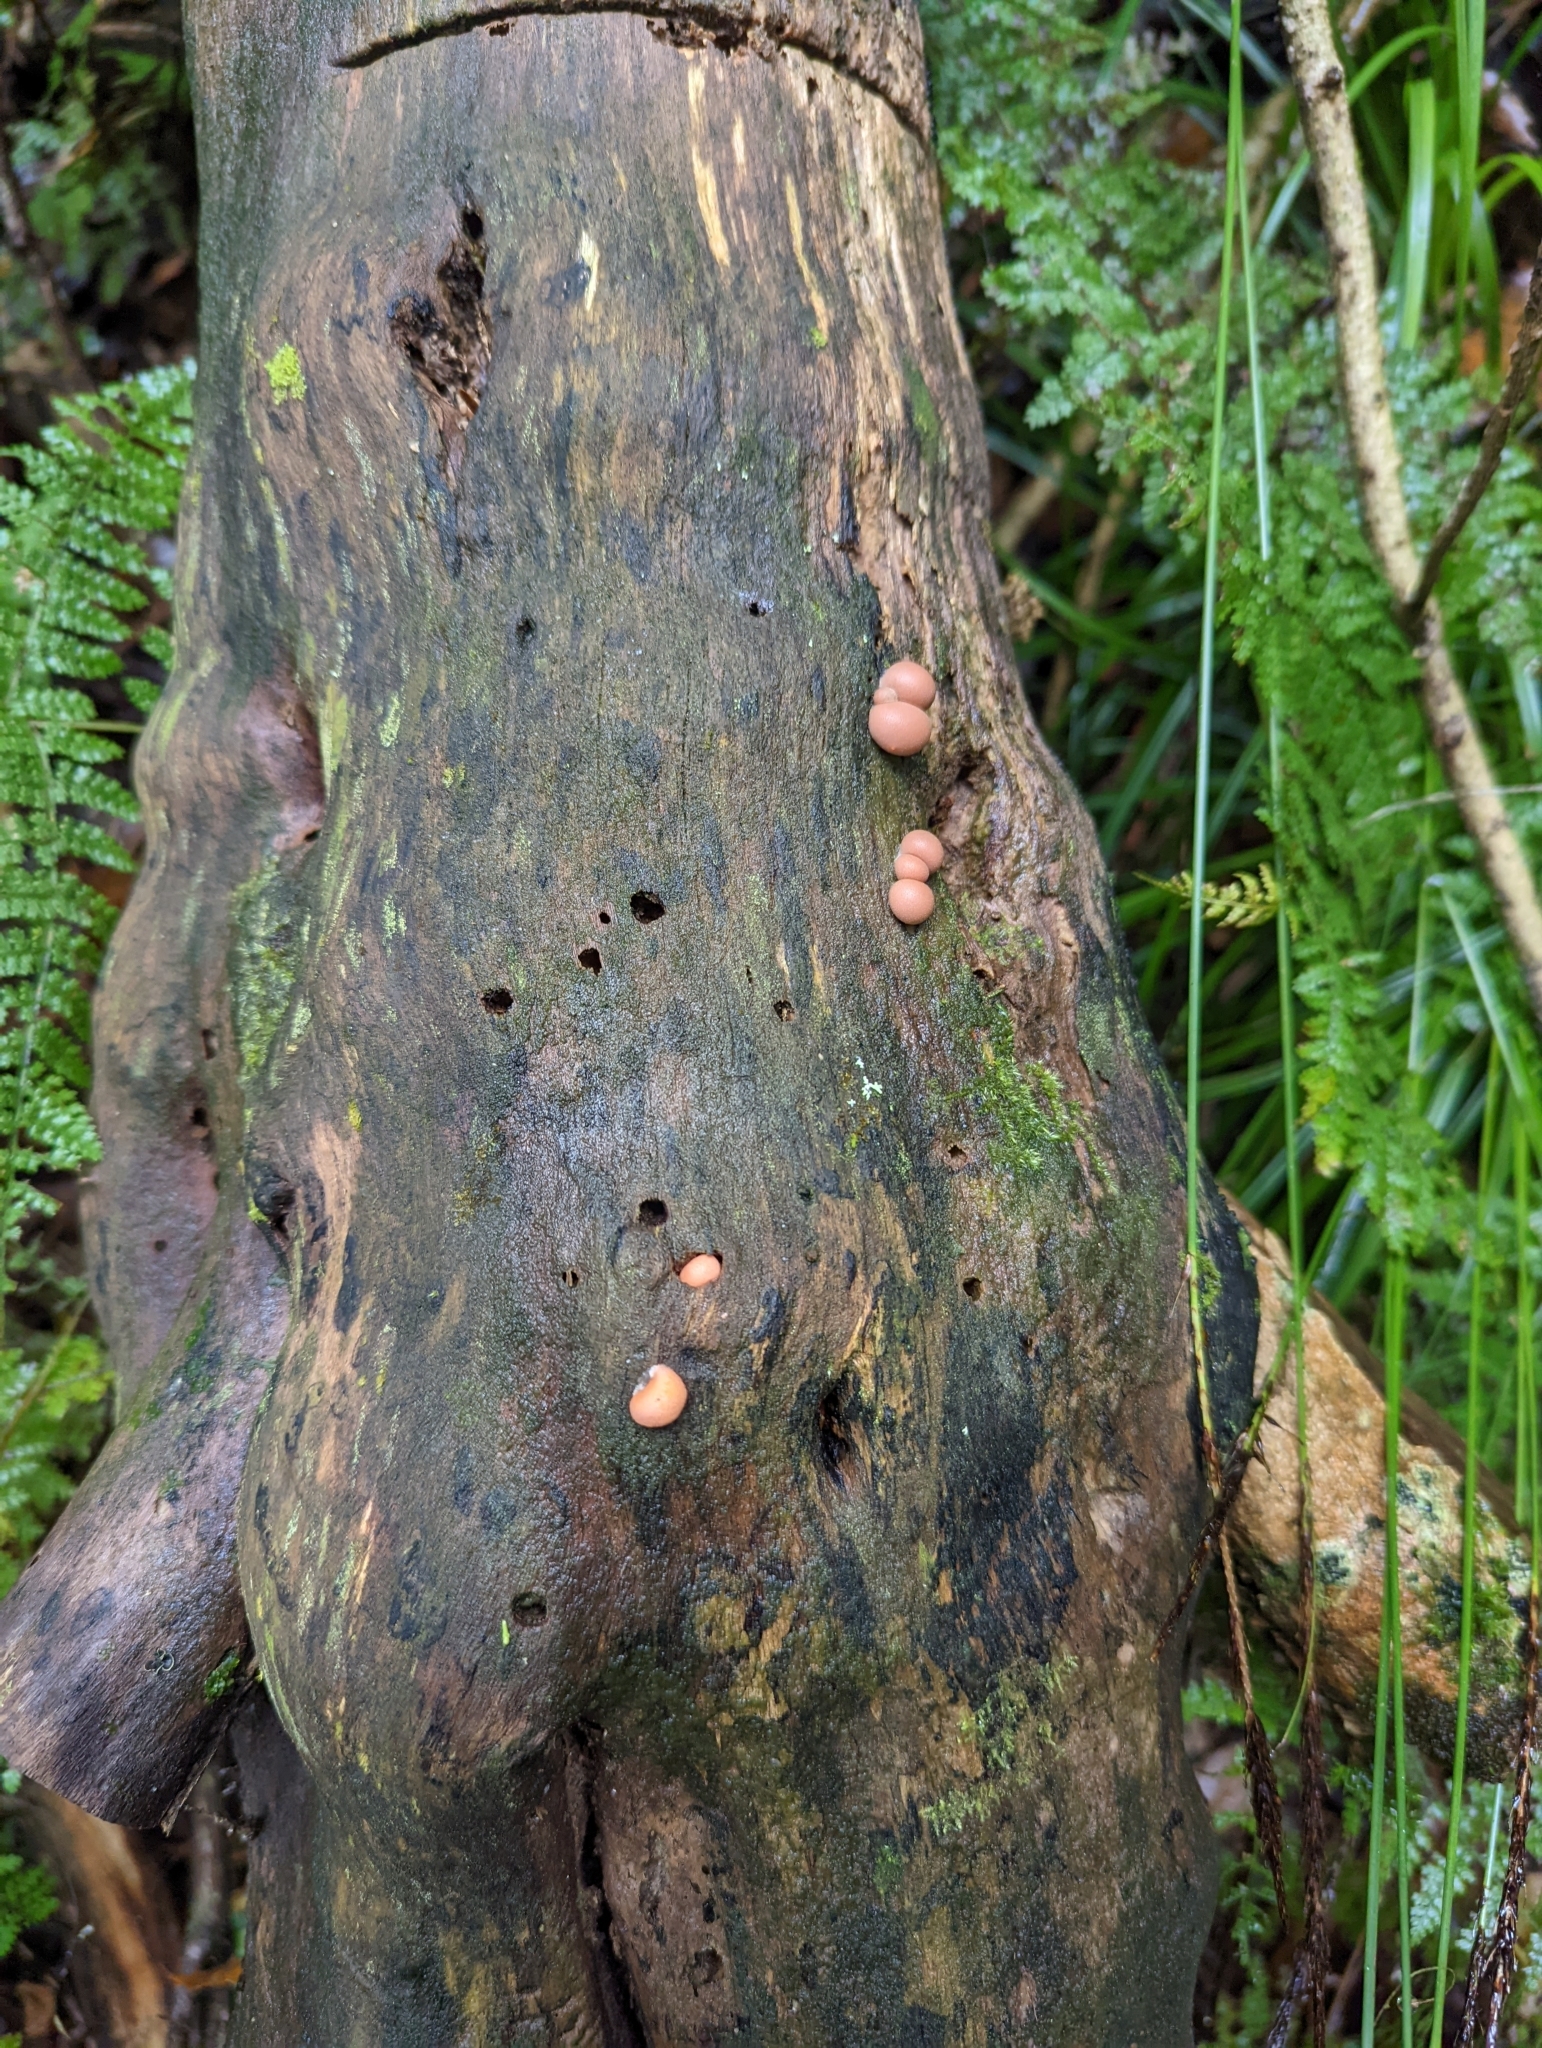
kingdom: Protozoa
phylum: Mycetozoa
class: Myxomycetes
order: Cribrariales
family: Tubiferaceae
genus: Lycogala
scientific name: Lycogala epidendrum
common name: Wolf's milk
